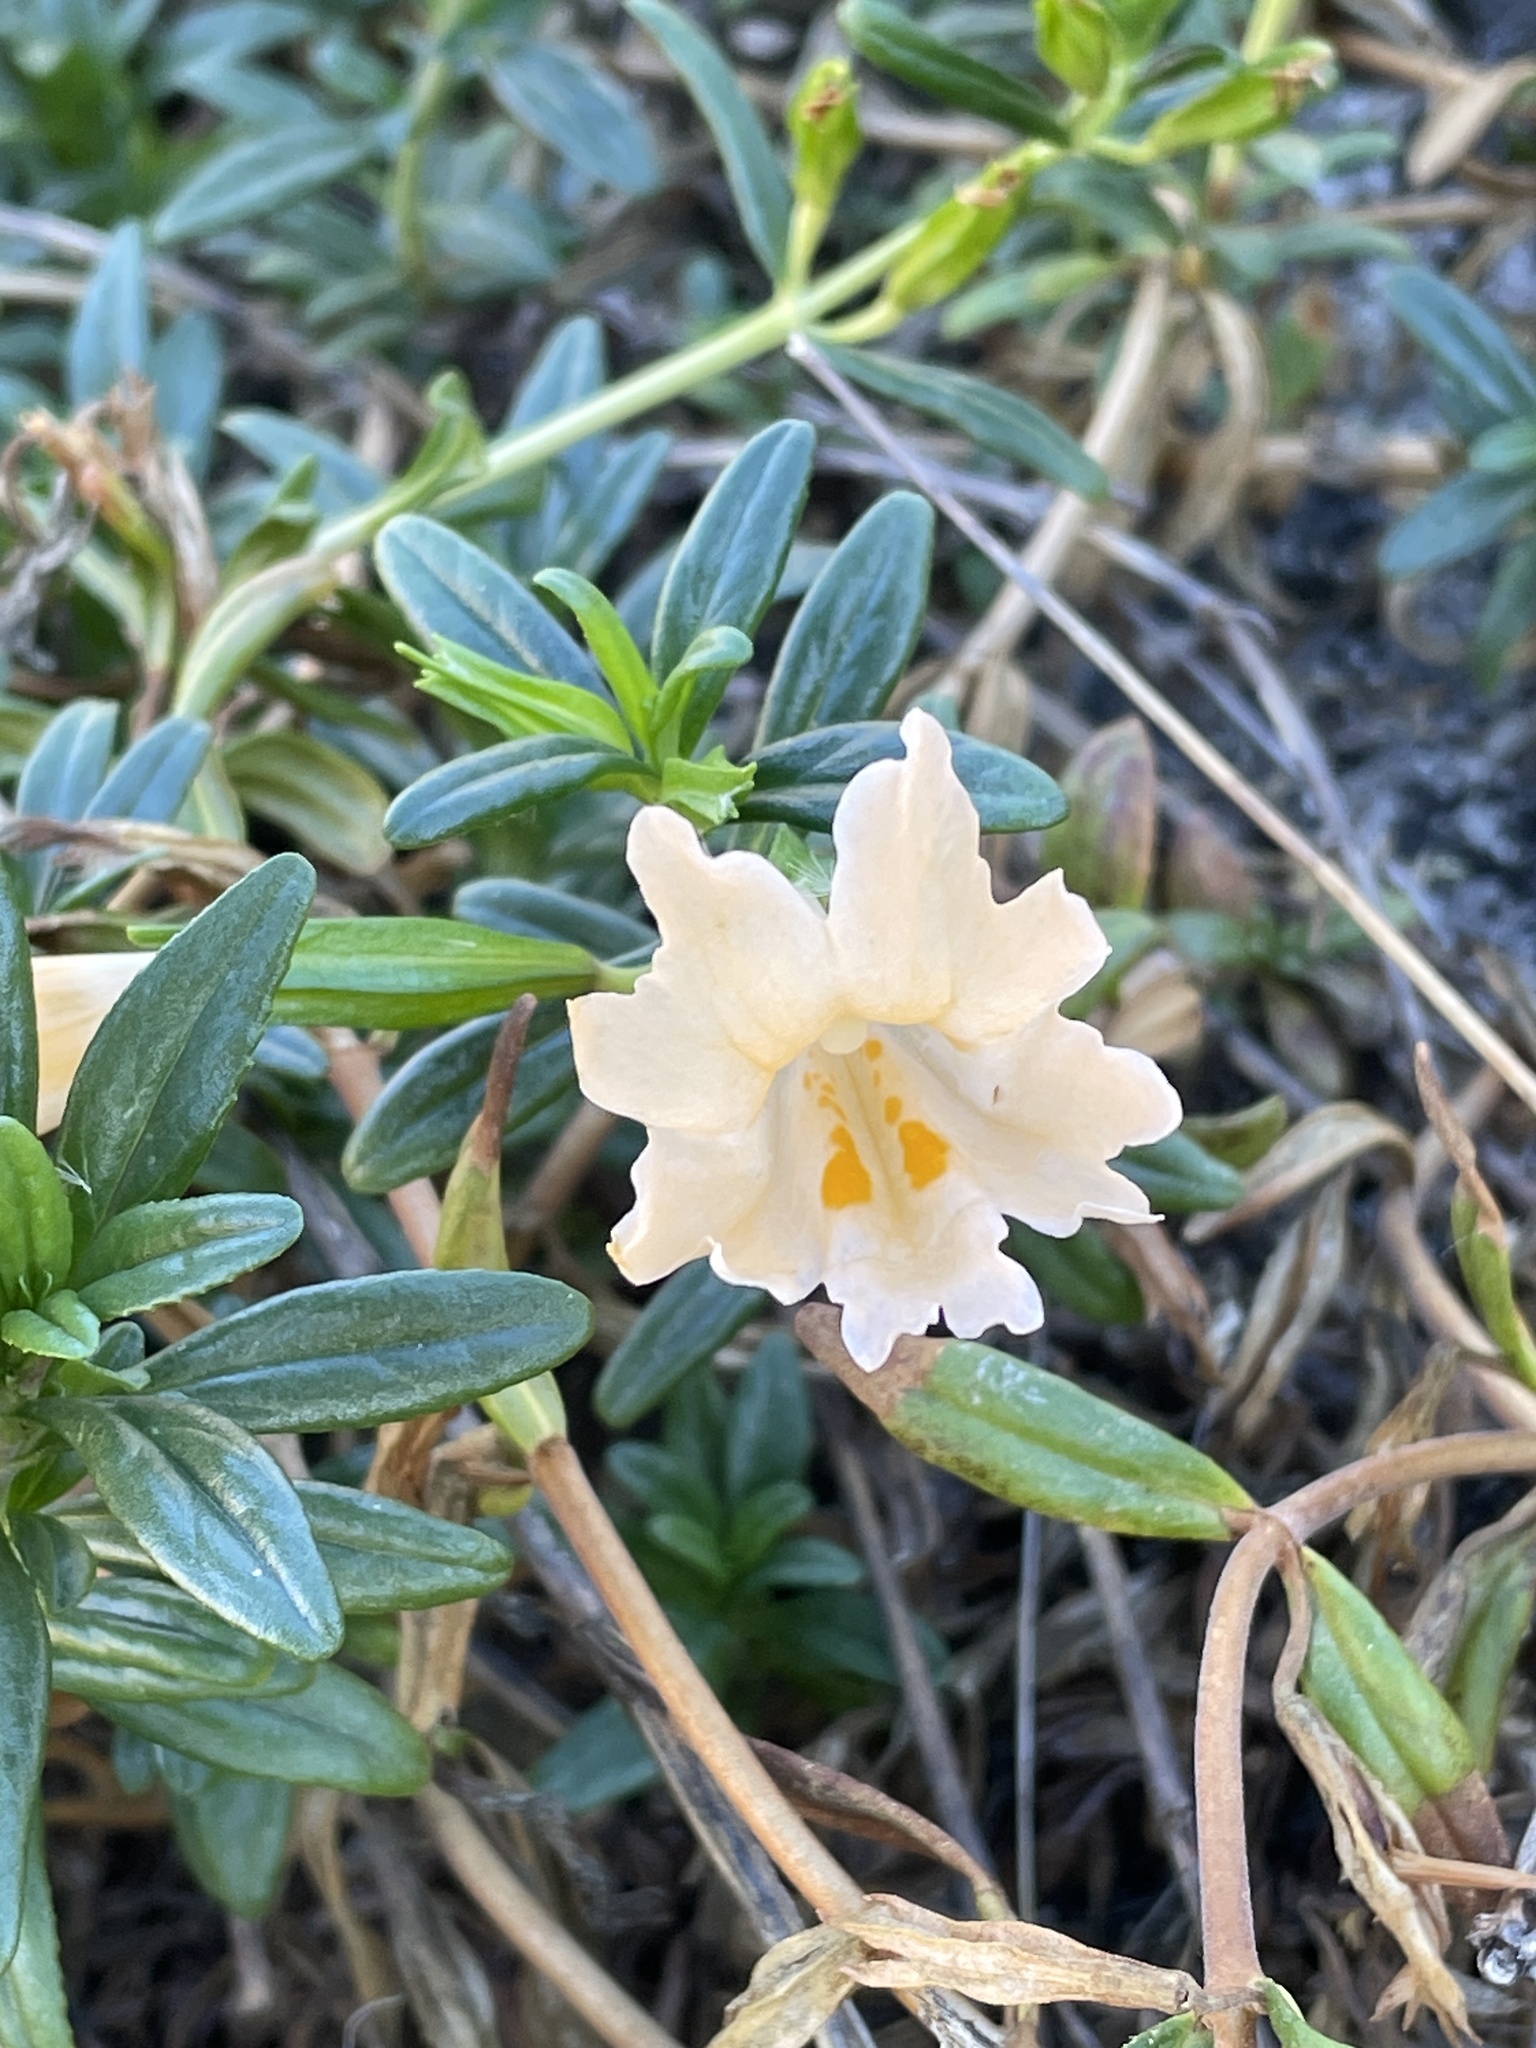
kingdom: Plantae
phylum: Tracheophyta
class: Magnoliopsida
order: Lamiales
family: Phrymaceae
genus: Diplacus
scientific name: Diplacus grandiflorus
